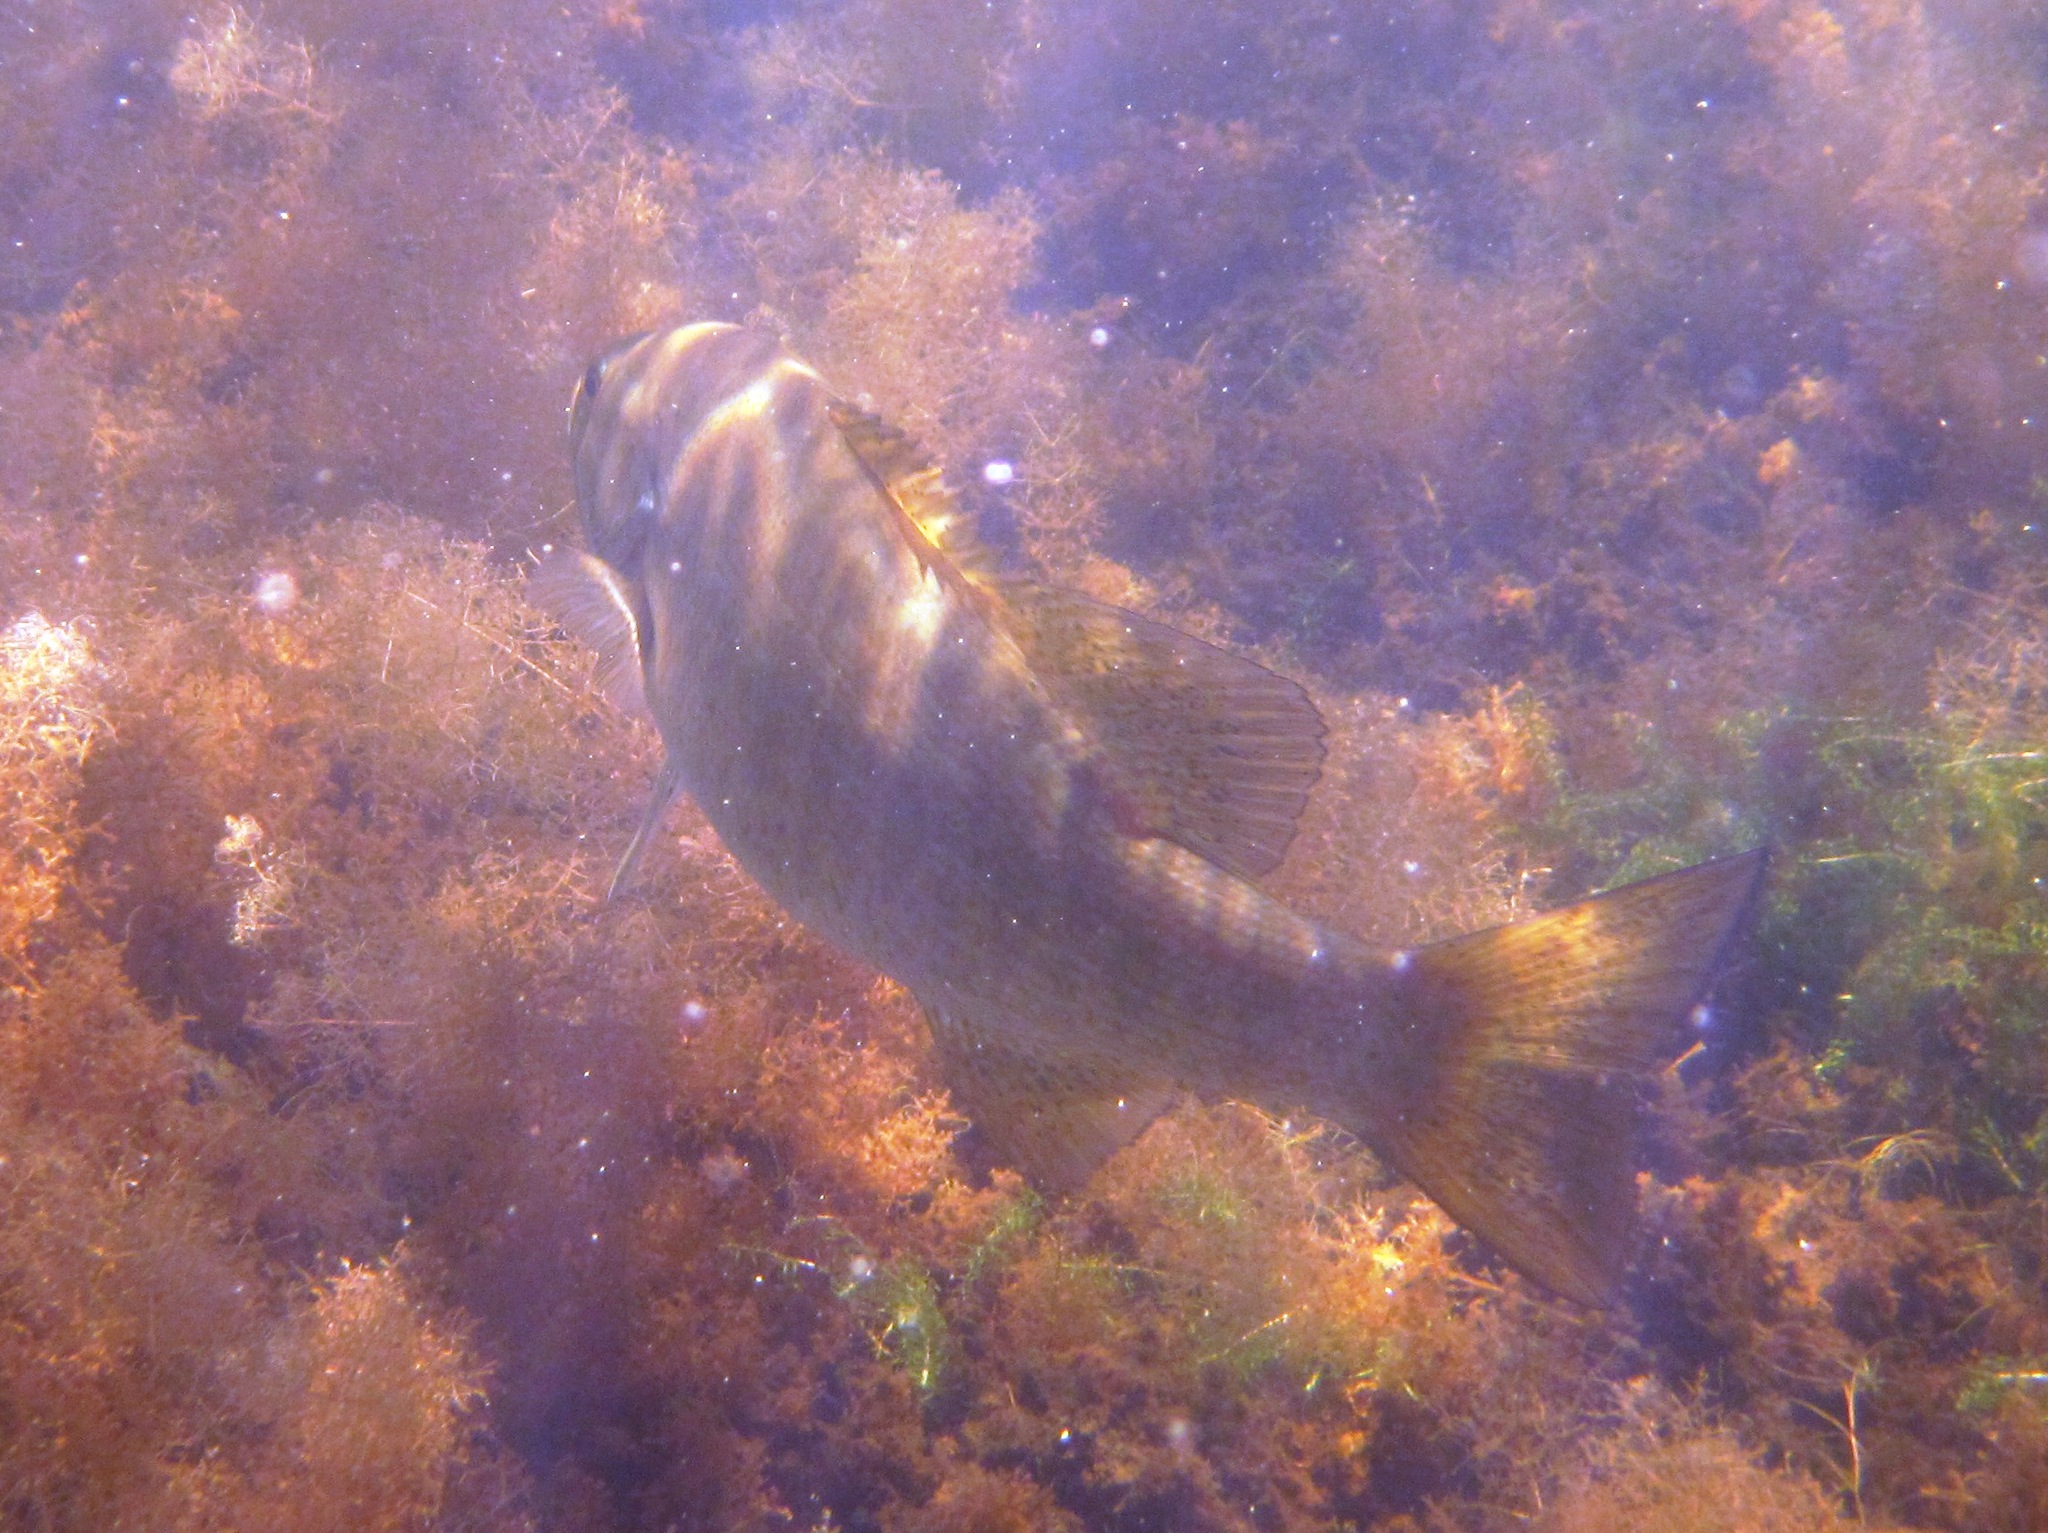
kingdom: Animalia
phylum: Chordata
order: Perciformes
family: Centrarchidae
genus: Micropterus
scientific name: Micropterus dolomieu
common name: Smallmouth bass
